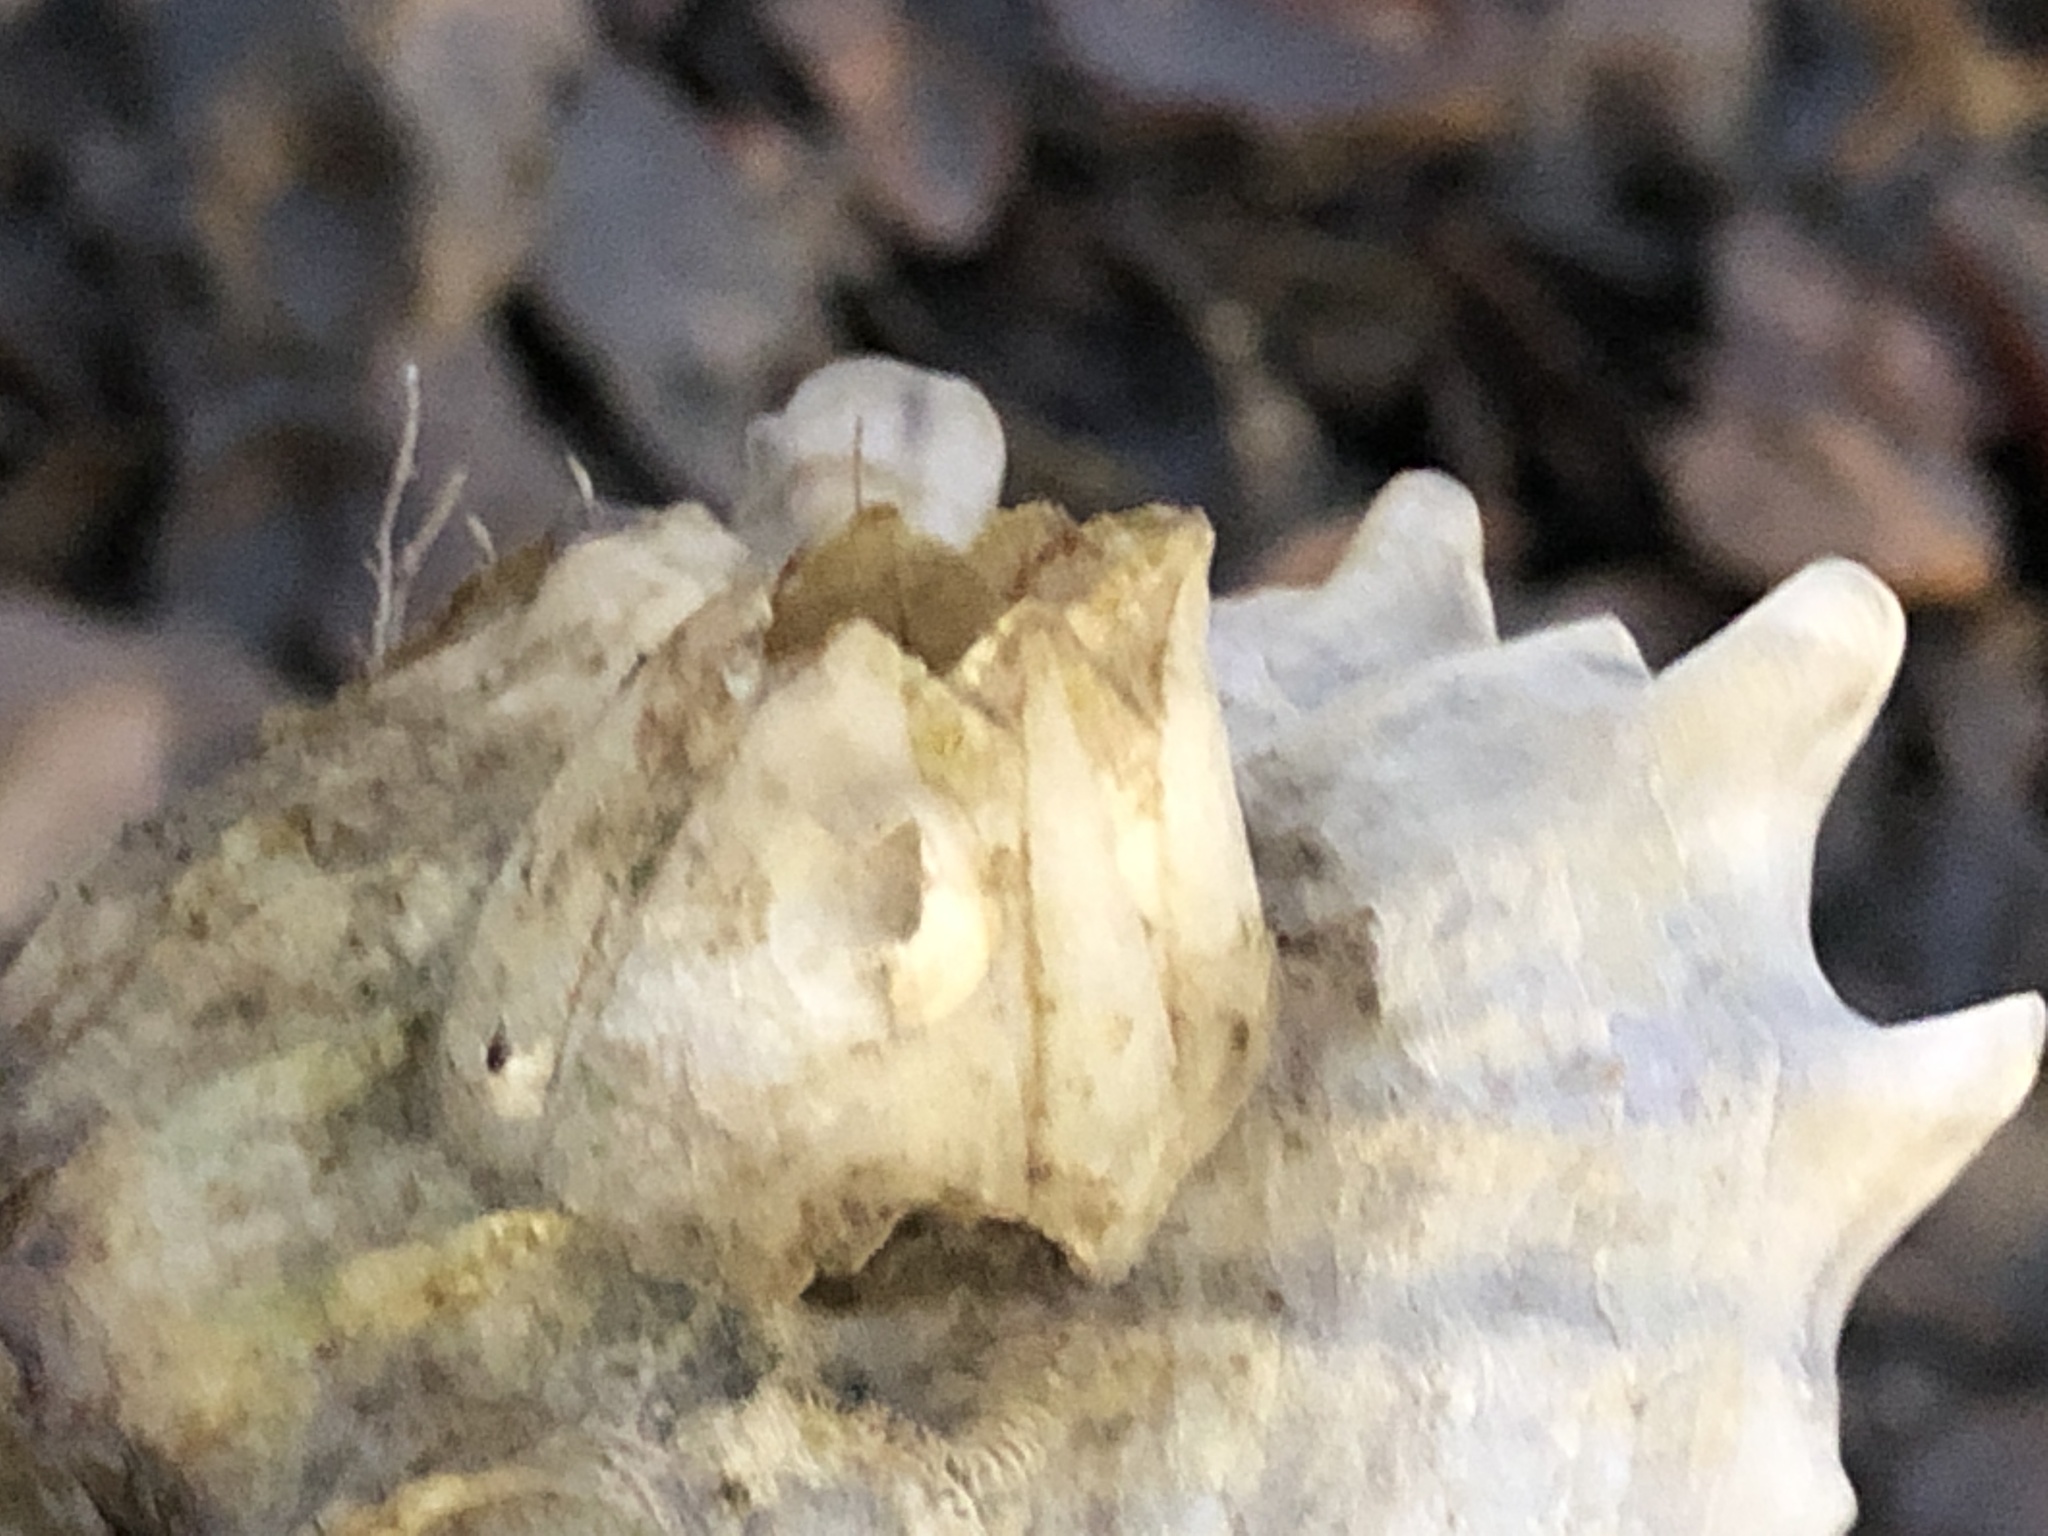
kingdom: Animalia
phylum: Arthropoda
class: Maxillopoda
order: Sessilia
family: Balanidae
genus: Amphibalanus
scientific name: Amphibalanus improvisus
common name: Bay barnacle
